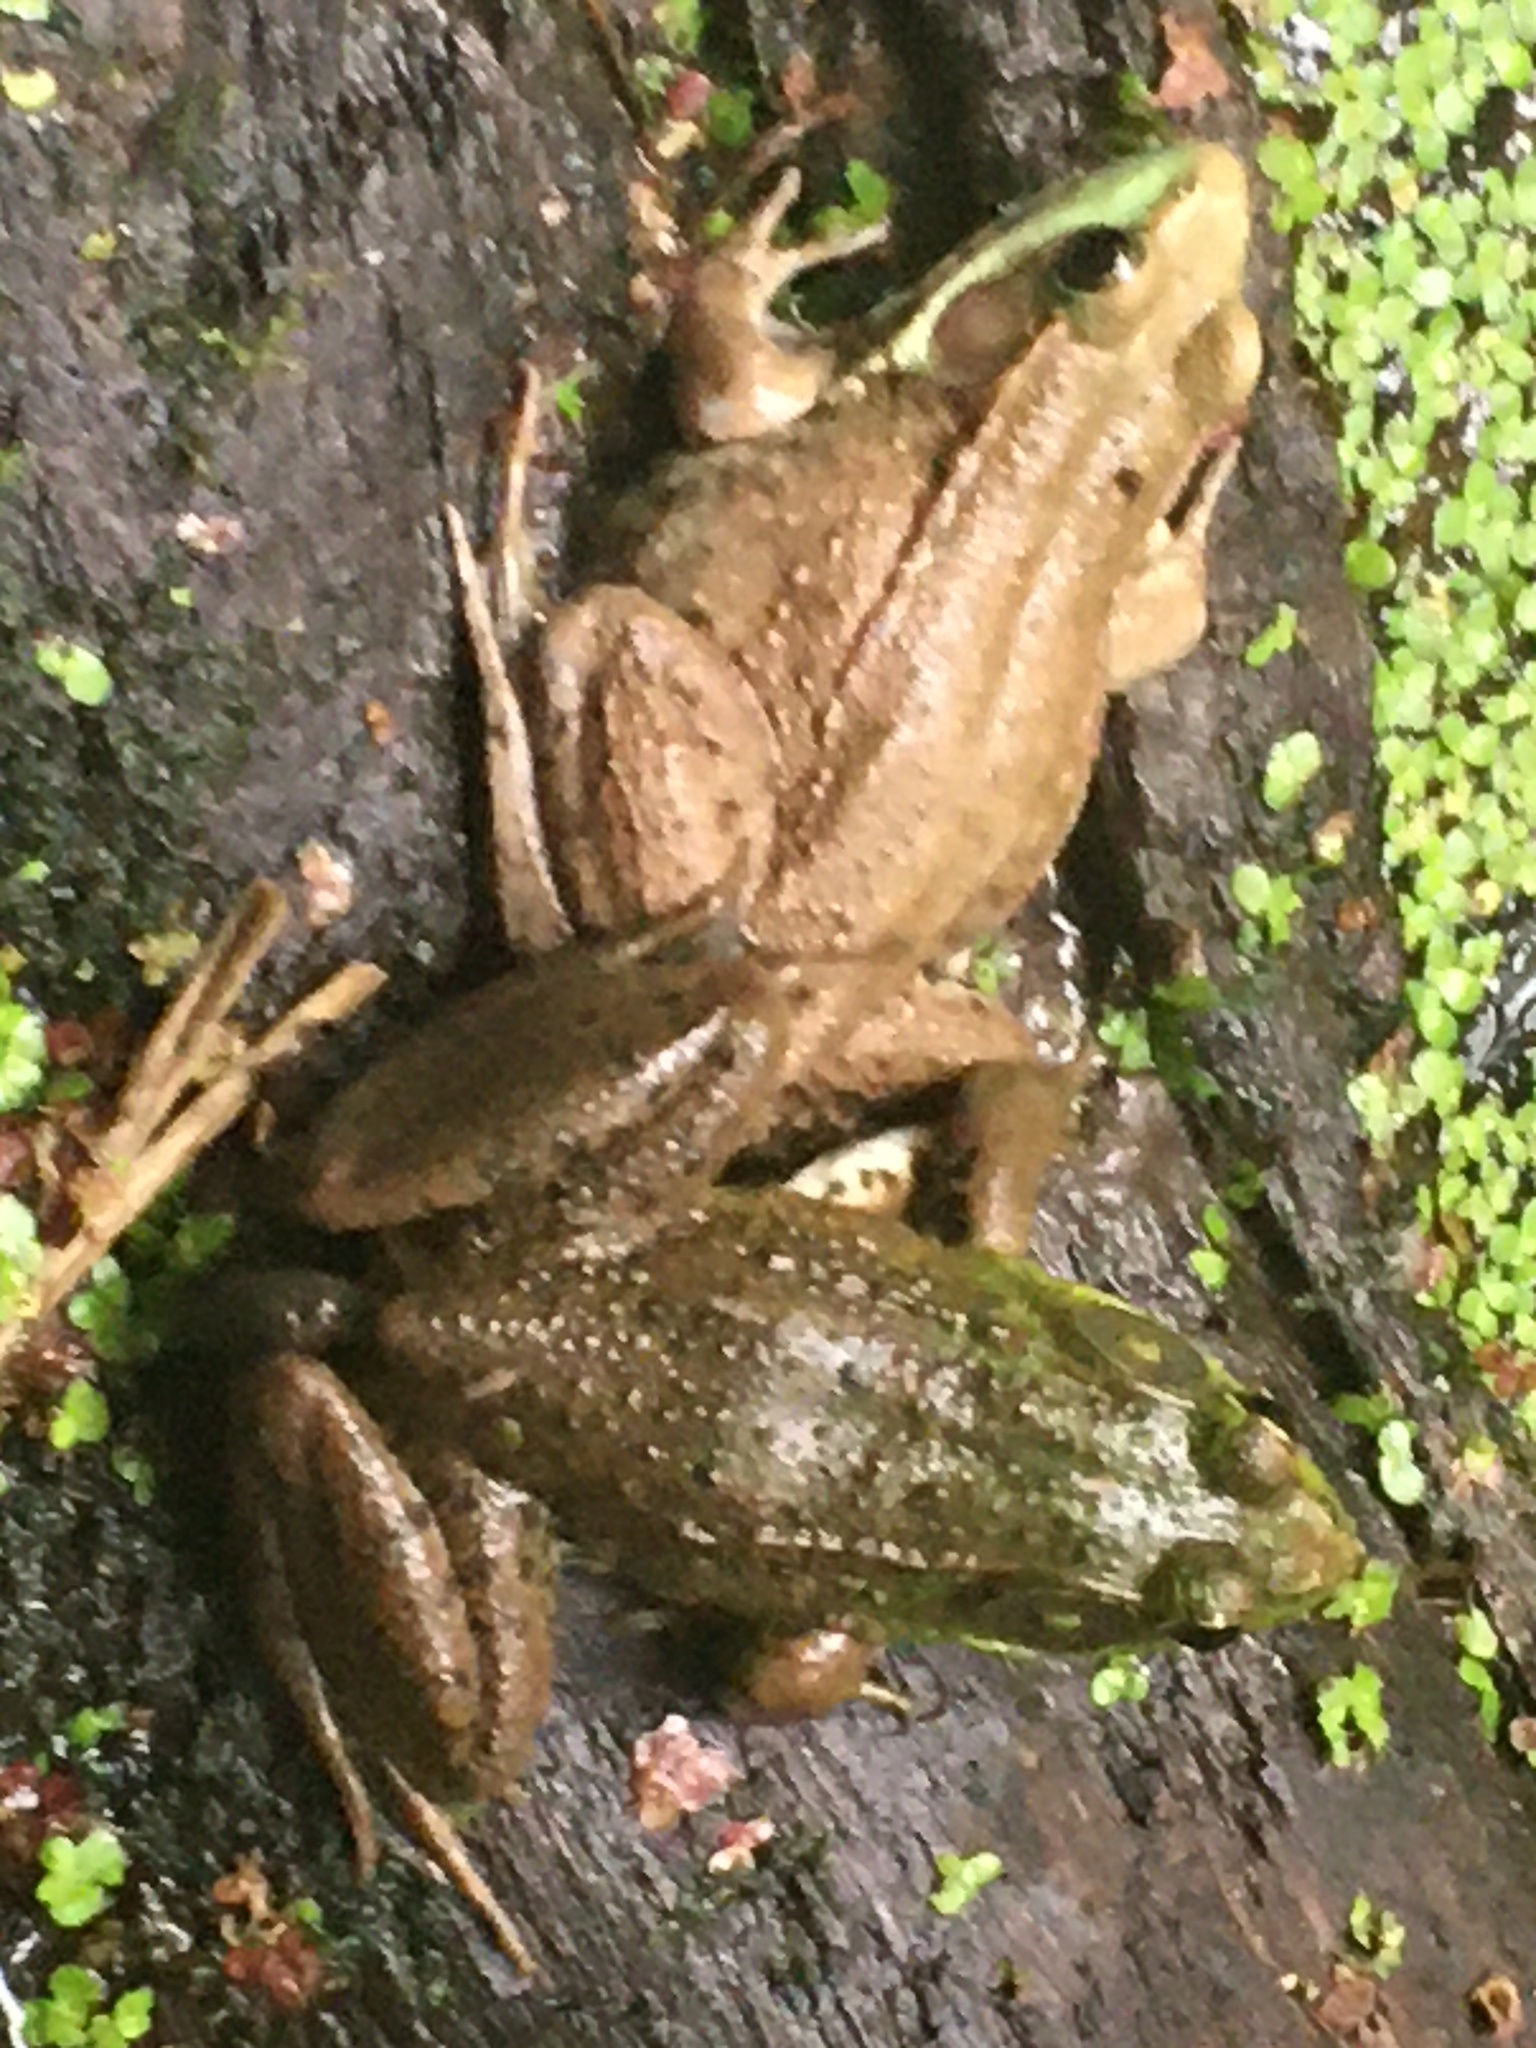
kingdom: Animalia
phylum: Chordata
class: Amphibia
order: Anura
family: Ranidae
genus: Lithobates
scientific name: Lithobates clamitans
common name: Green frog
